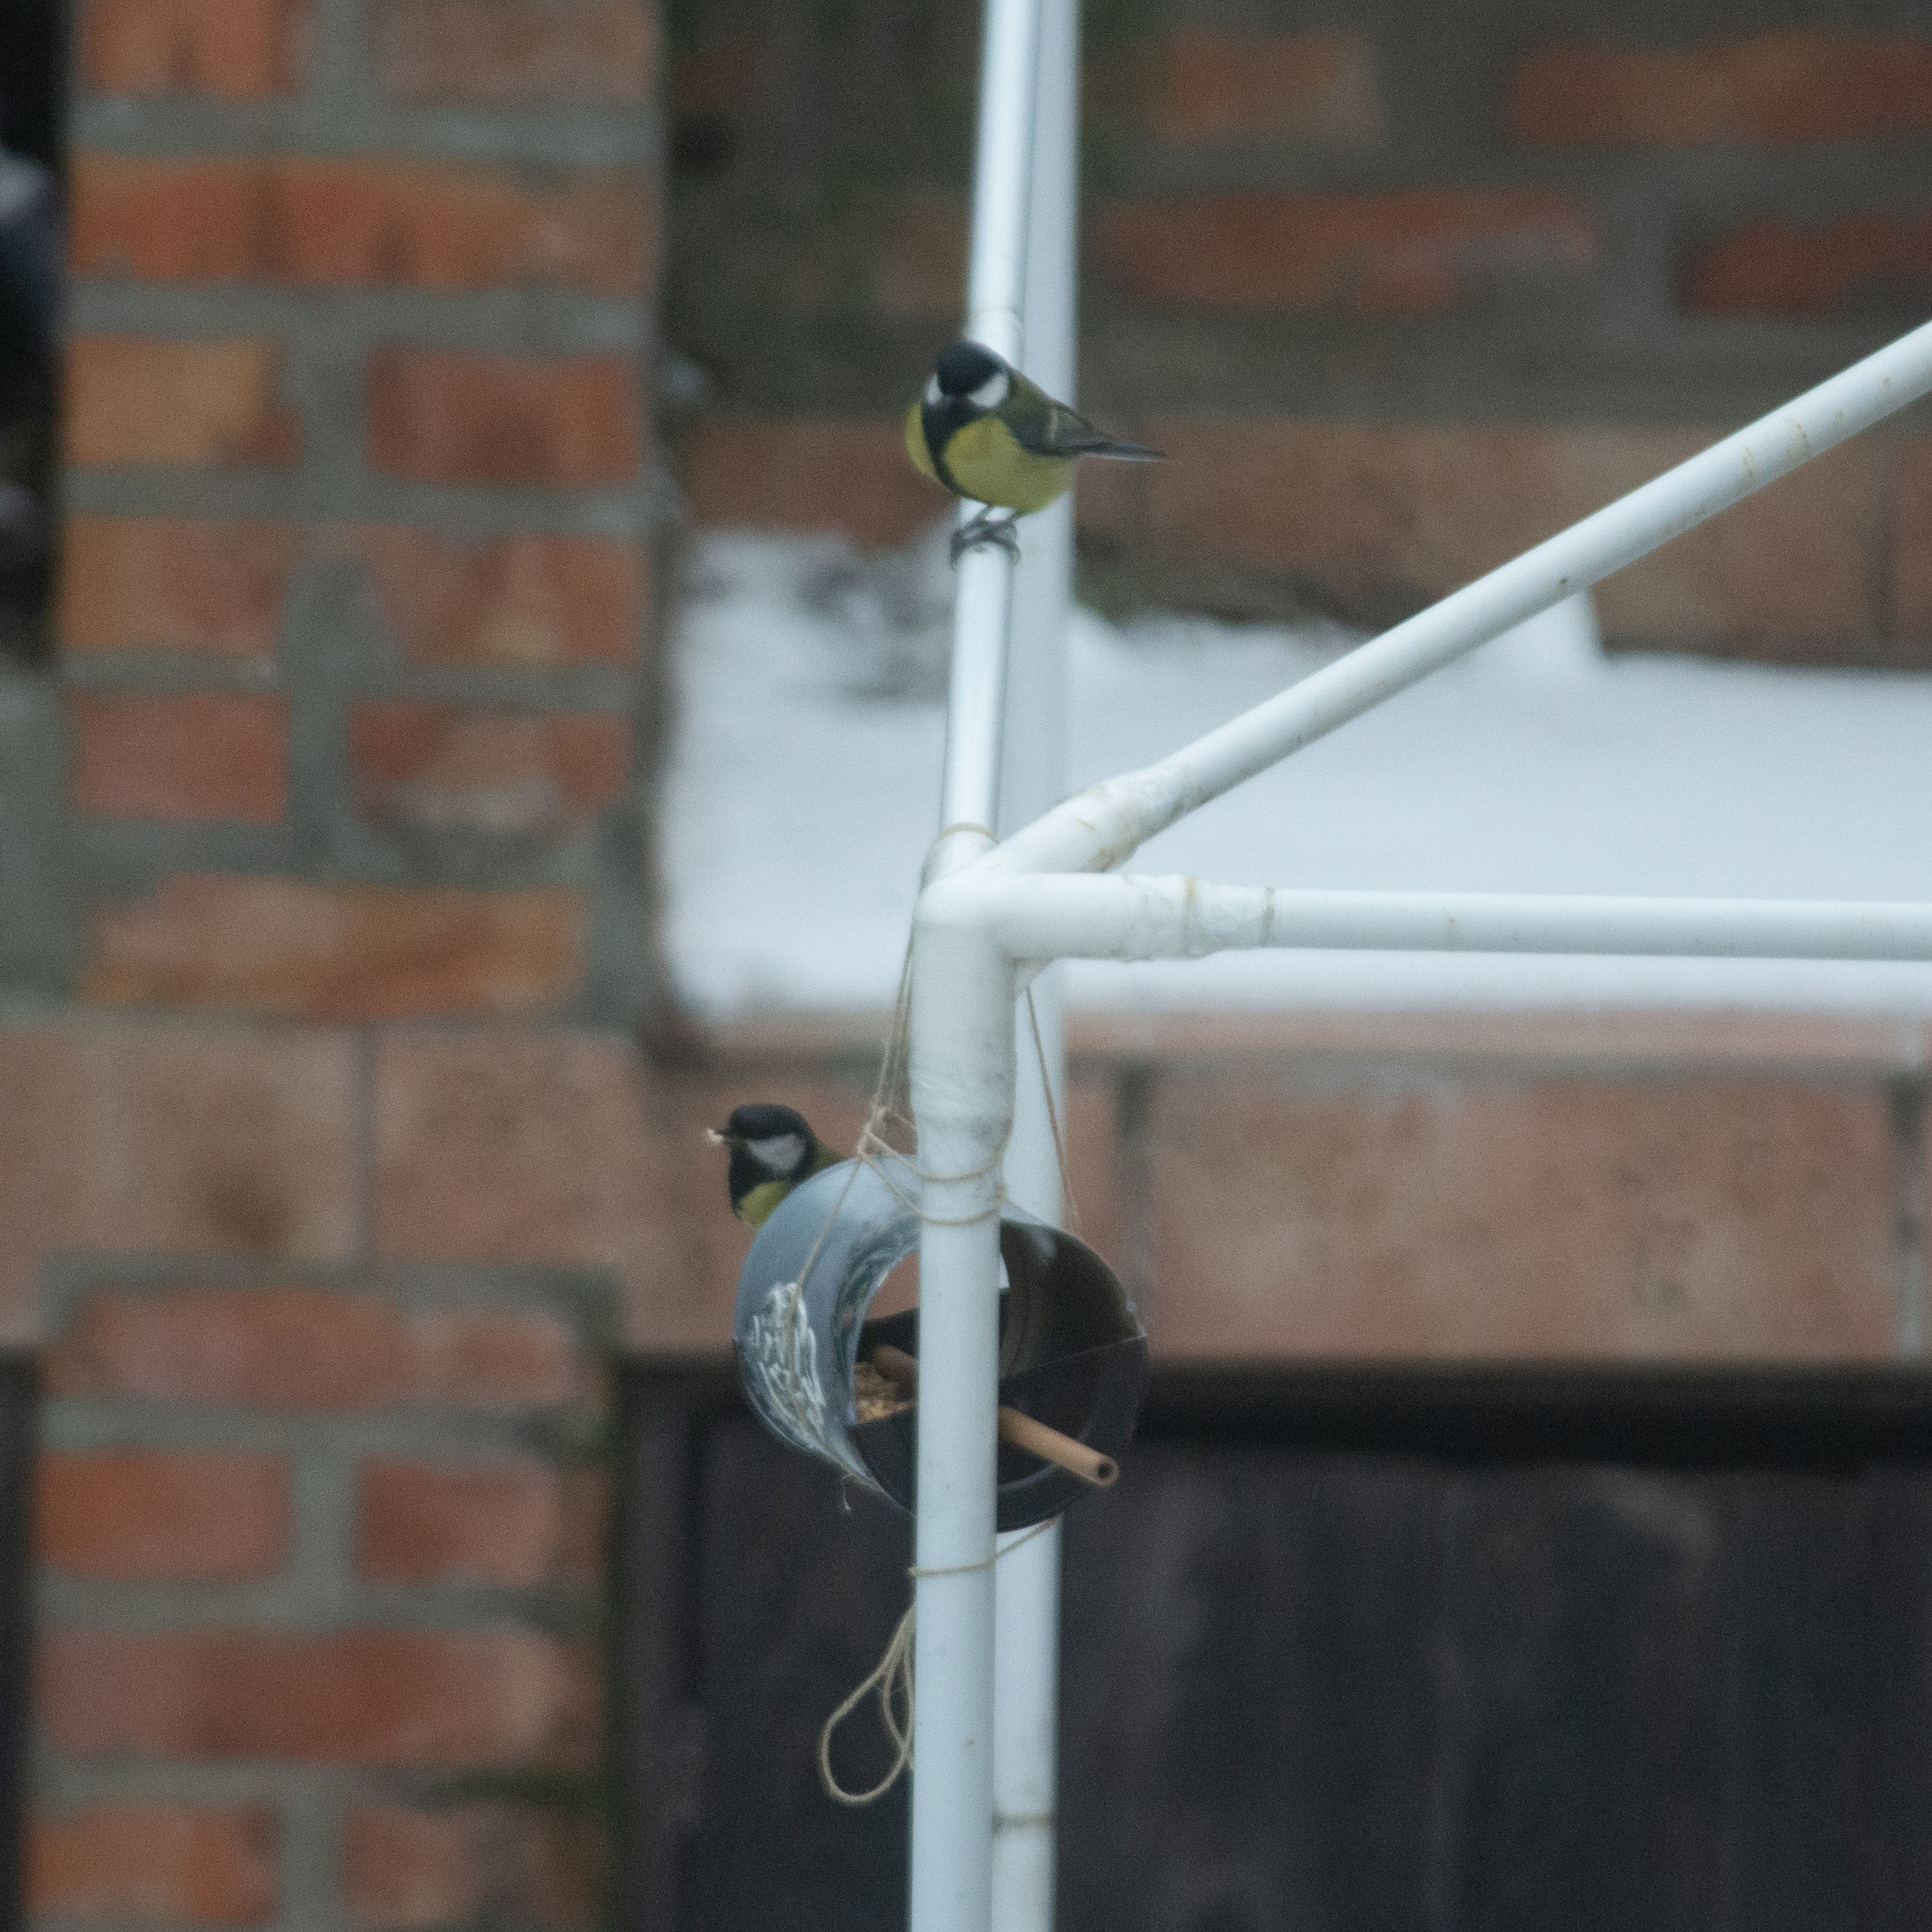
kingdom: Animalia
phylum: Chordata
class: Aves
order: Passeriformes
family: Paridae
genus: Parus
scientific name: Parus major
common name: Great tit
